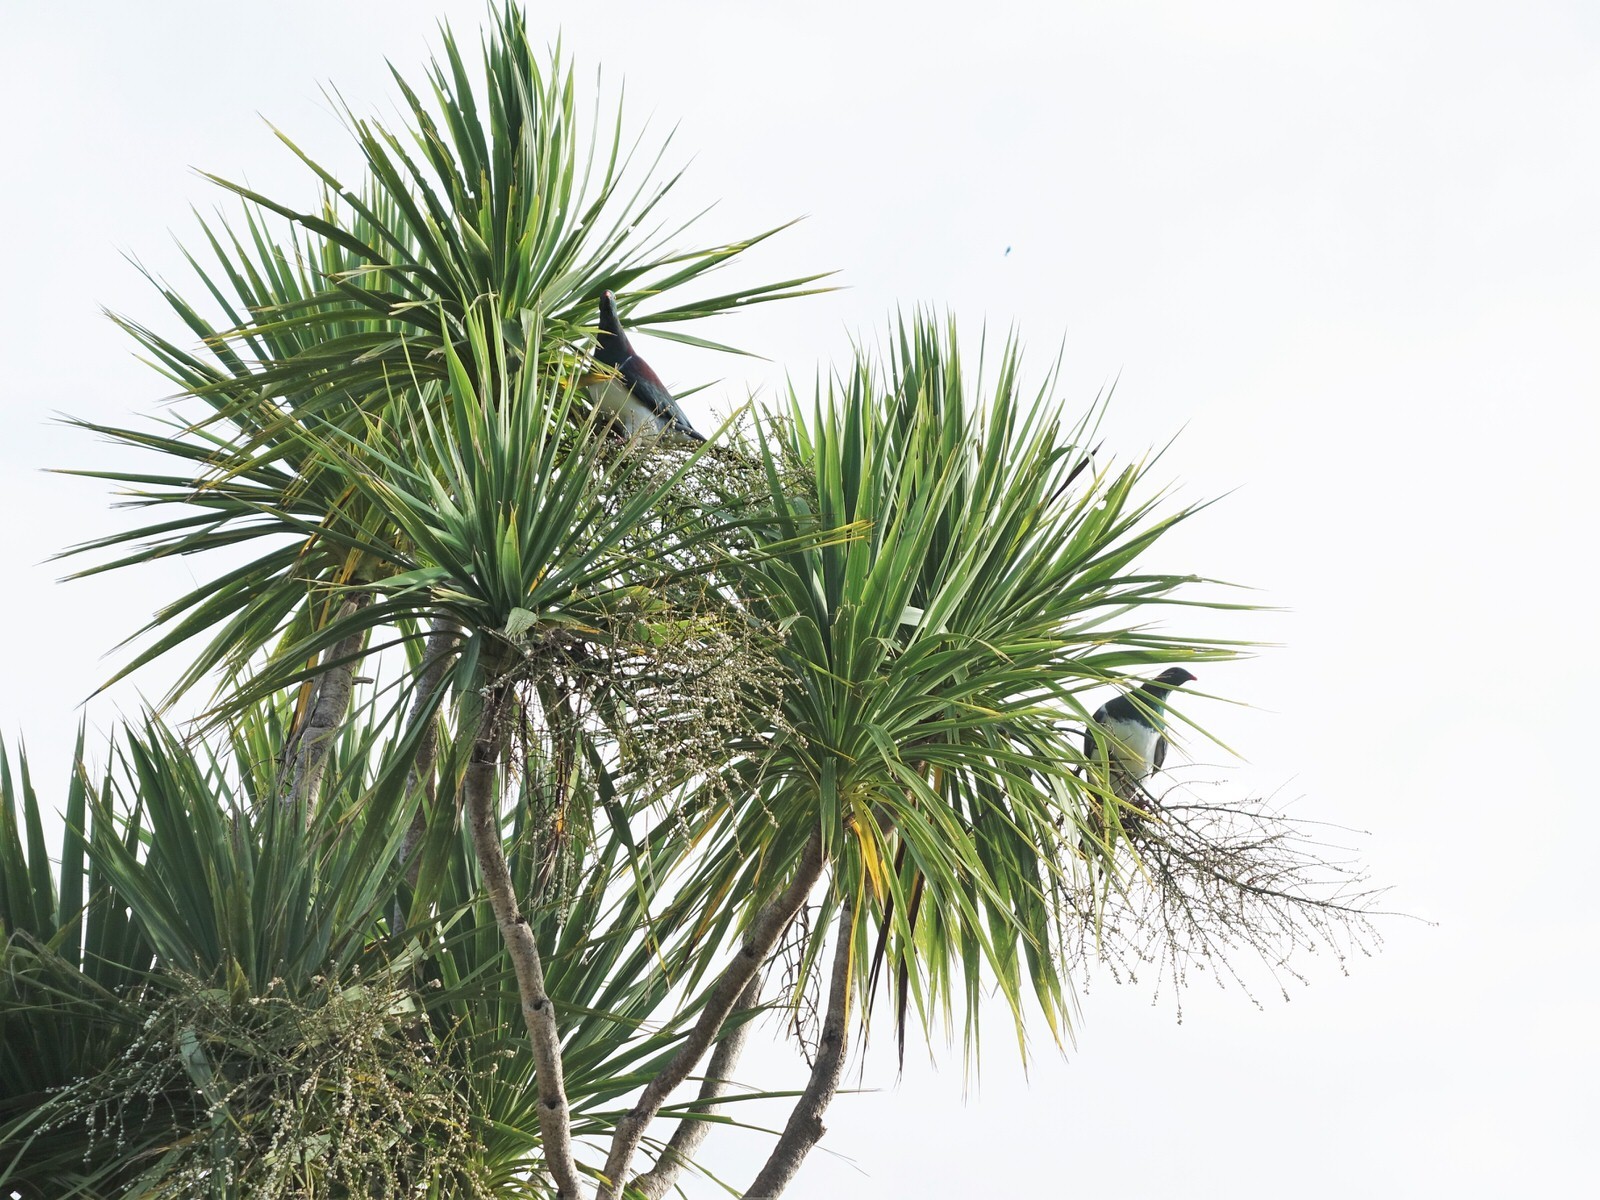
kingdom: Animalia
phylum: Chordata
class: Aves
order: Columbiformes
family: Columbidae
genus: Hemiphaga
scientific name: Hemiphaga novaeseelandiae
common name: New zealand pigeon
